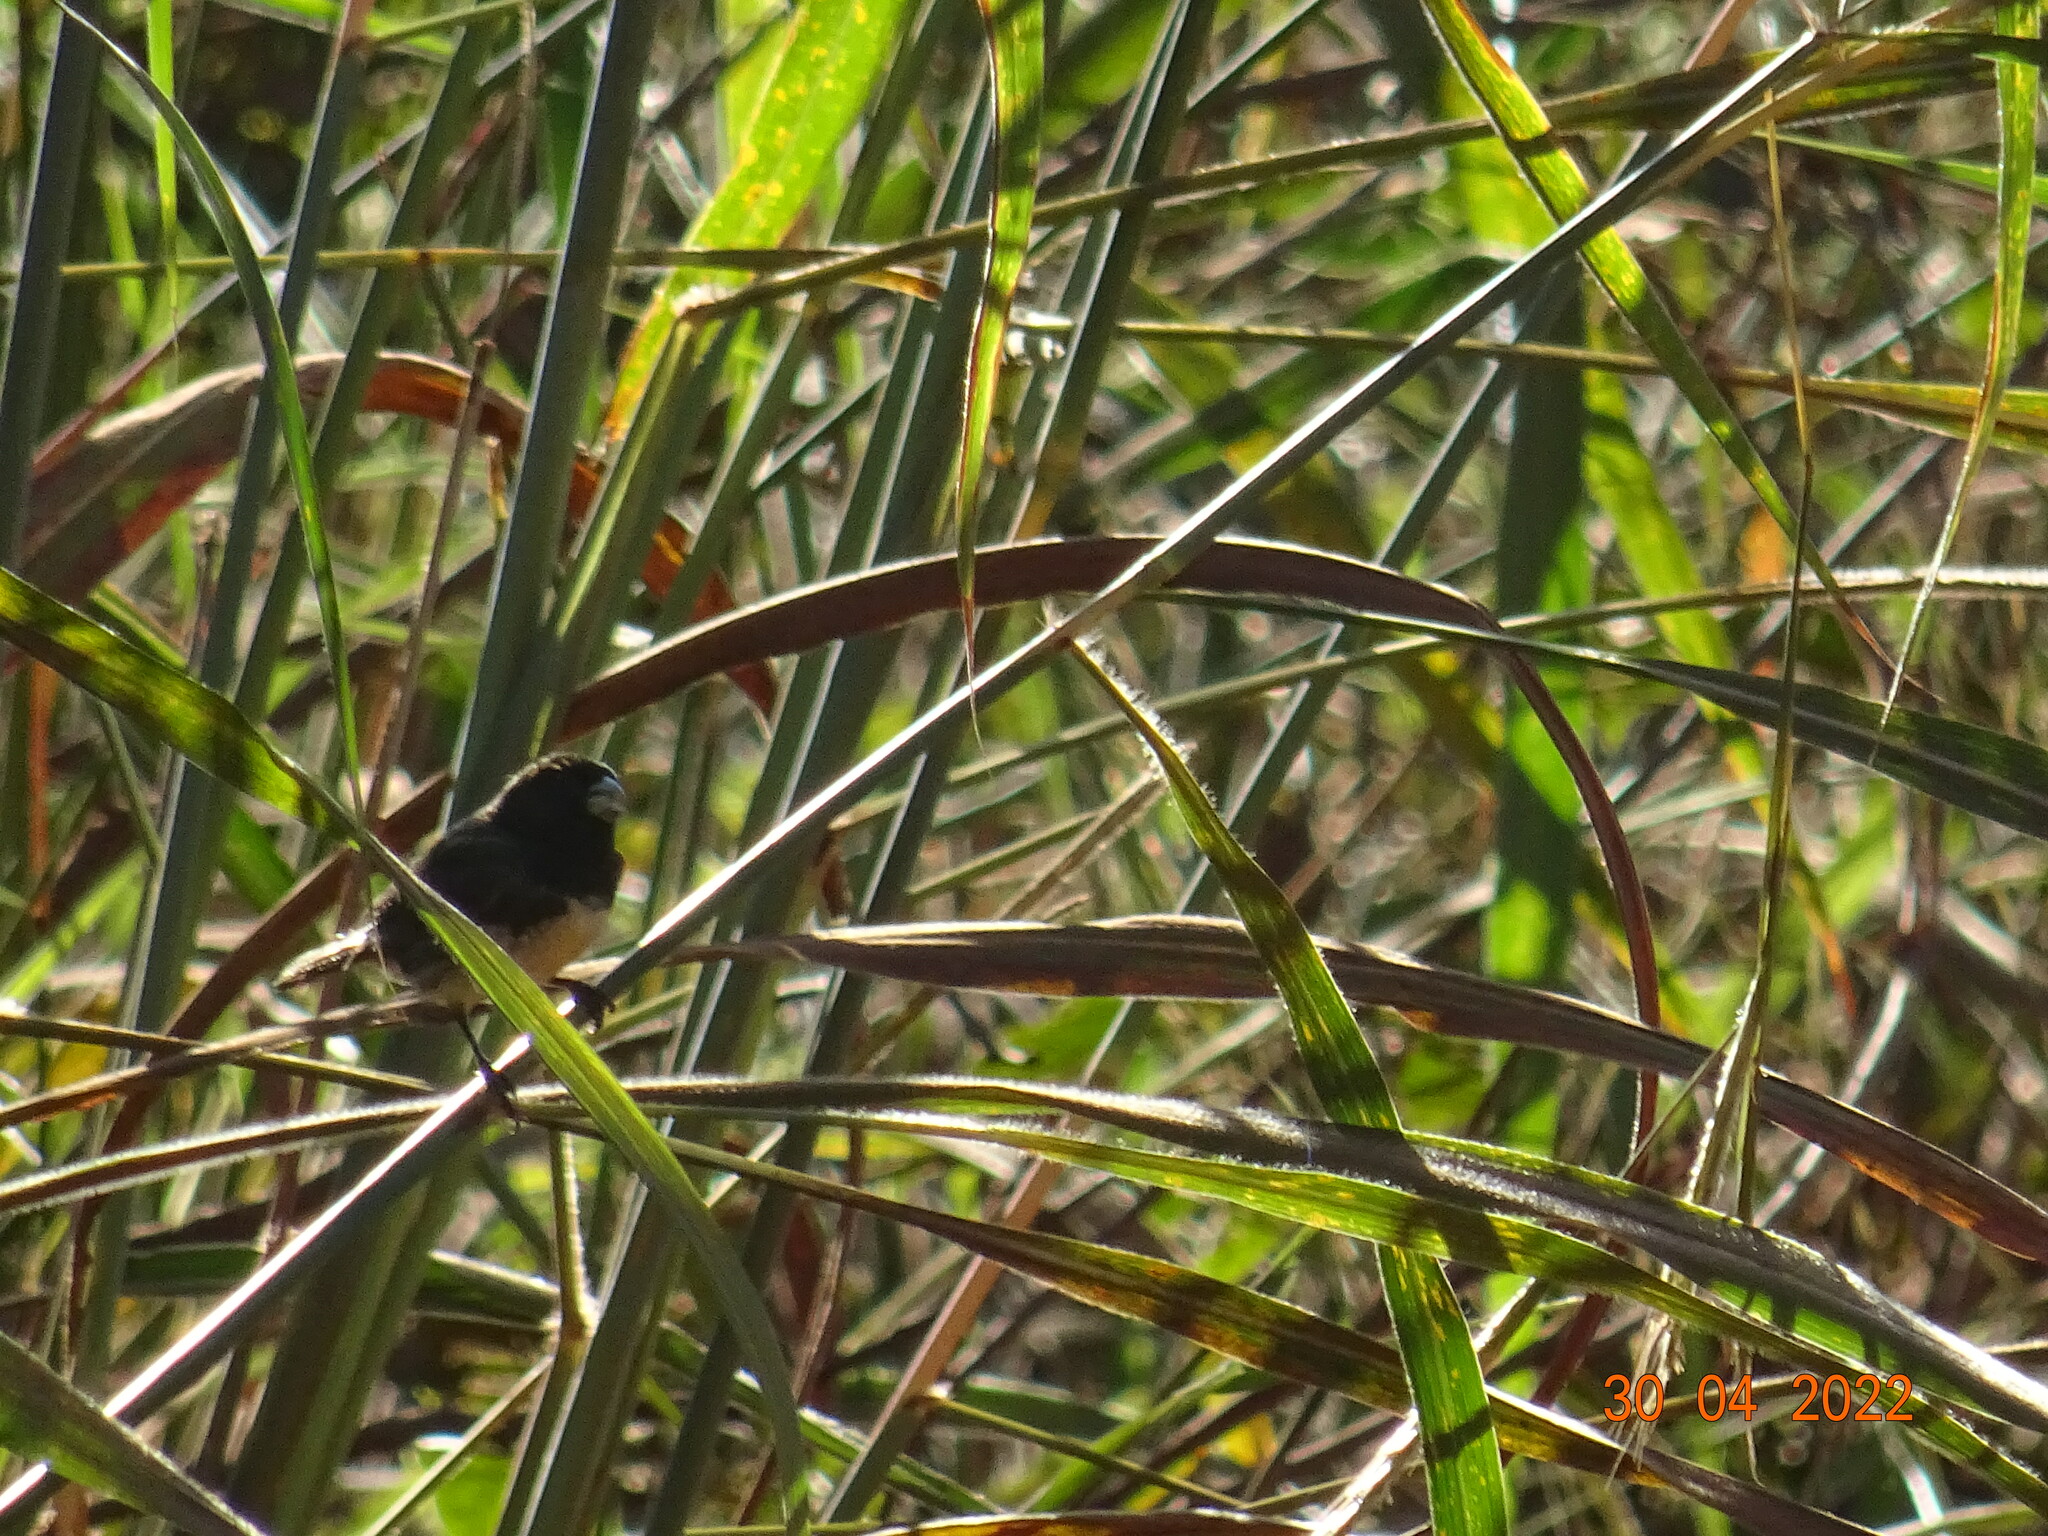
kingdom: Animalia
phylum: Chordata
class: Aves
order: Passeriformes
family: Thraupidae
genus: Sporophila
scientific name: Sporophila nigricollis
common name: Yellow-bellied seedeater
